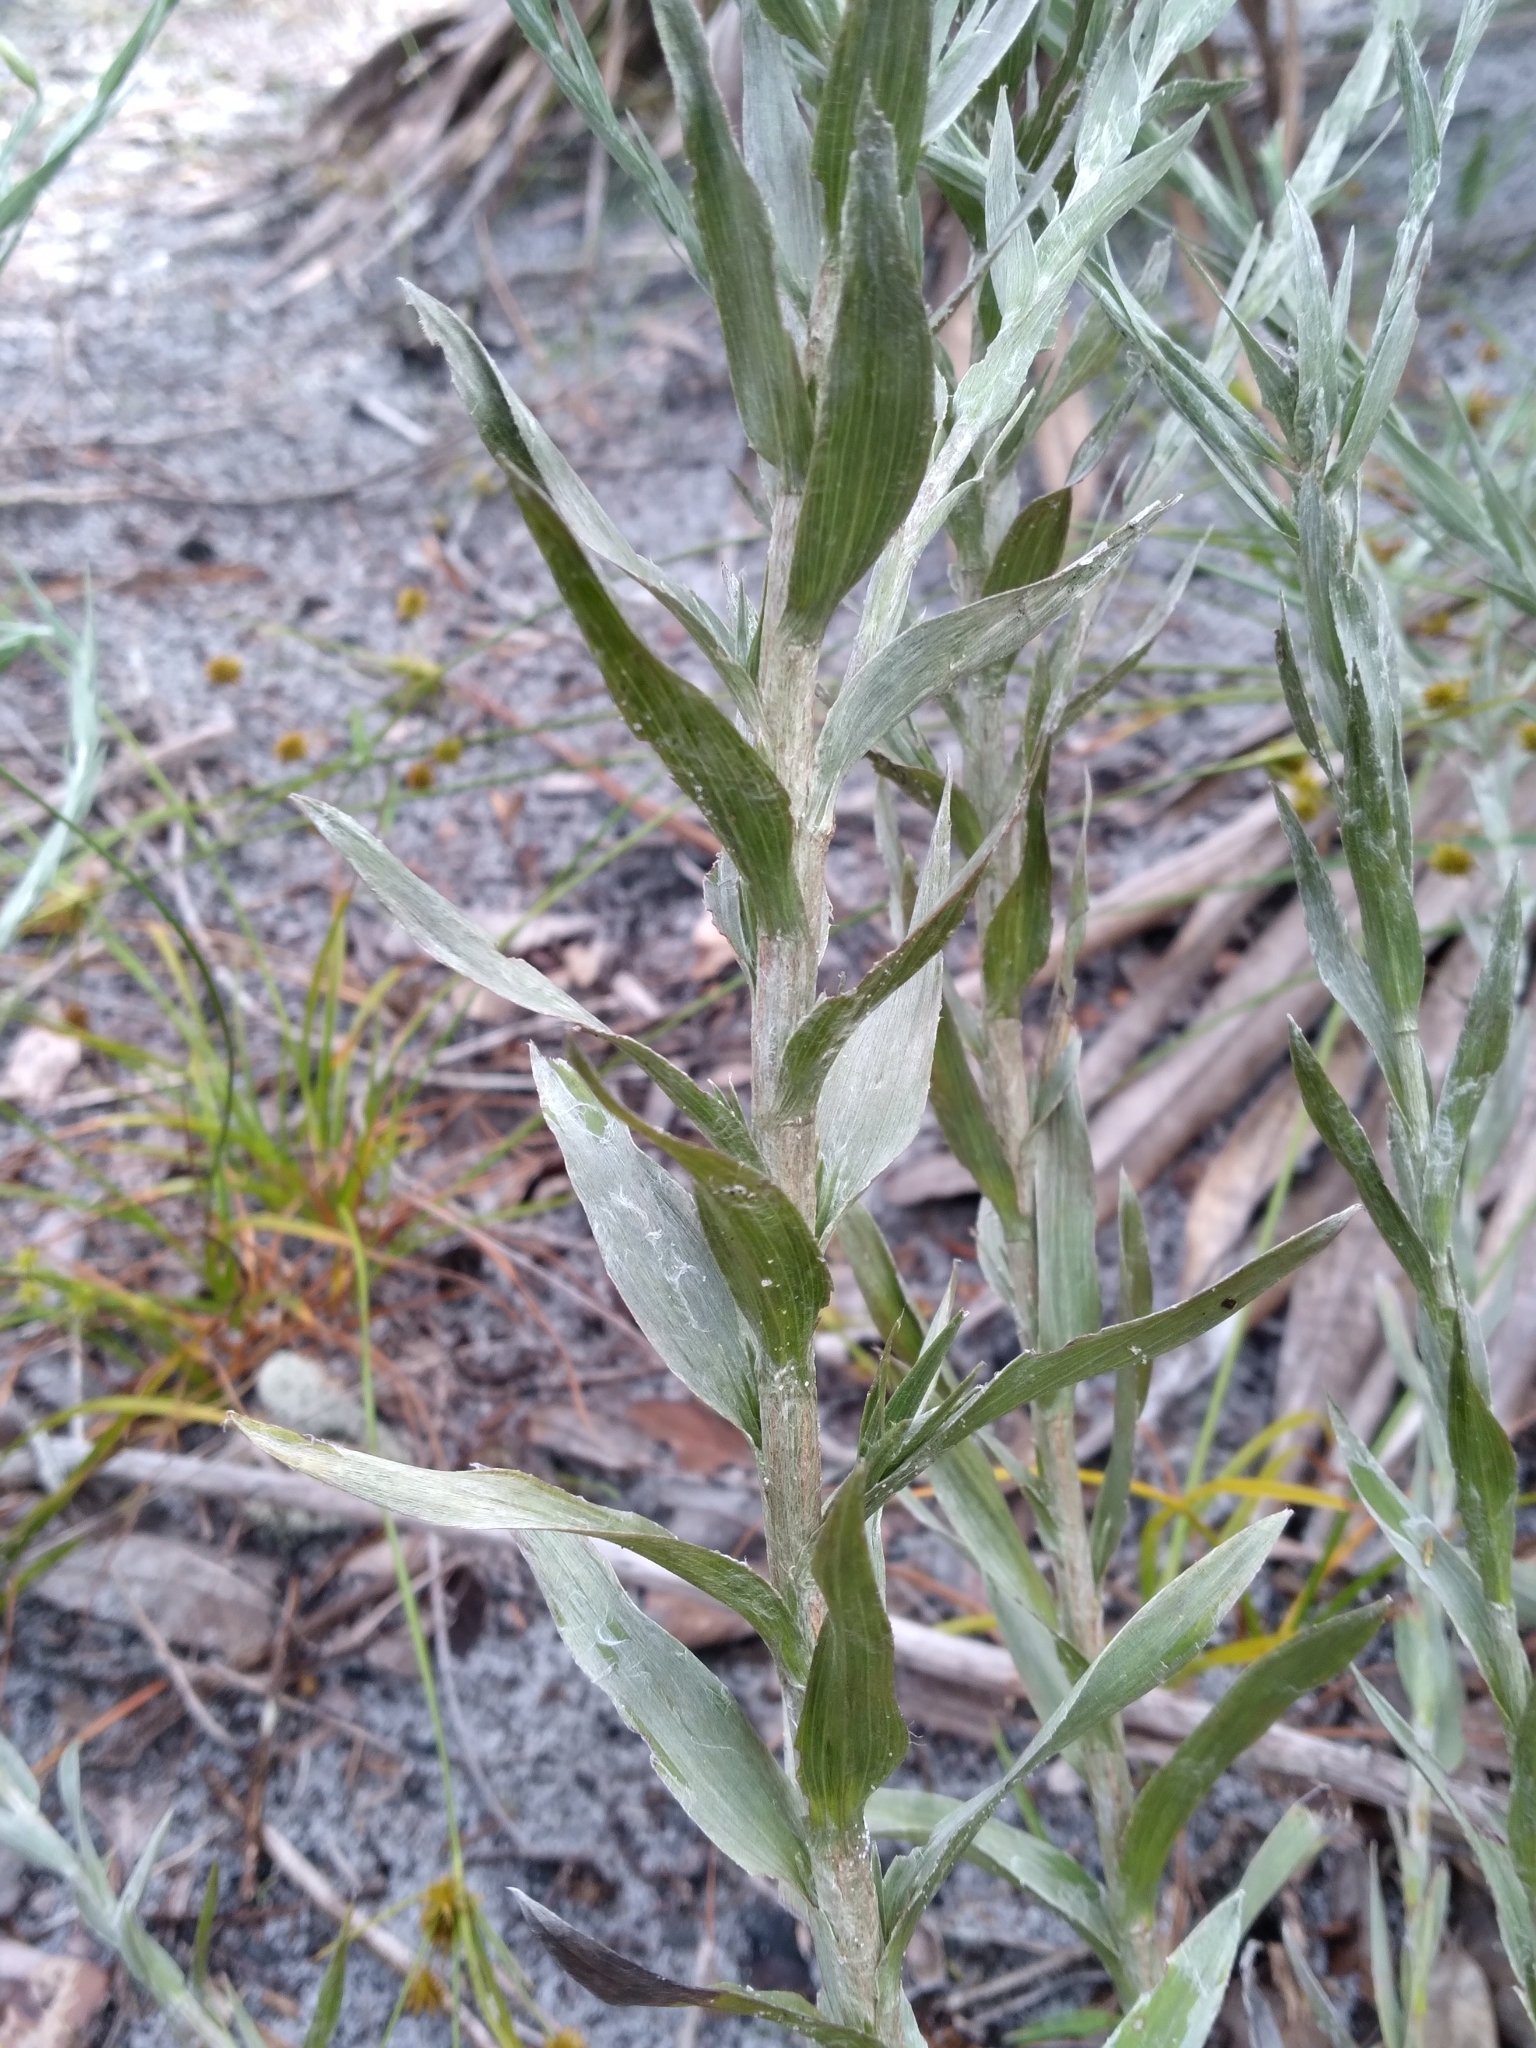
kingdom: Plantae
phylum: Tracheophyta
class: Magnoliopsida
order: Asterales
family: Asteraceae
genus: Pityopsis
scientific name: Pityopsis aequilifolia
